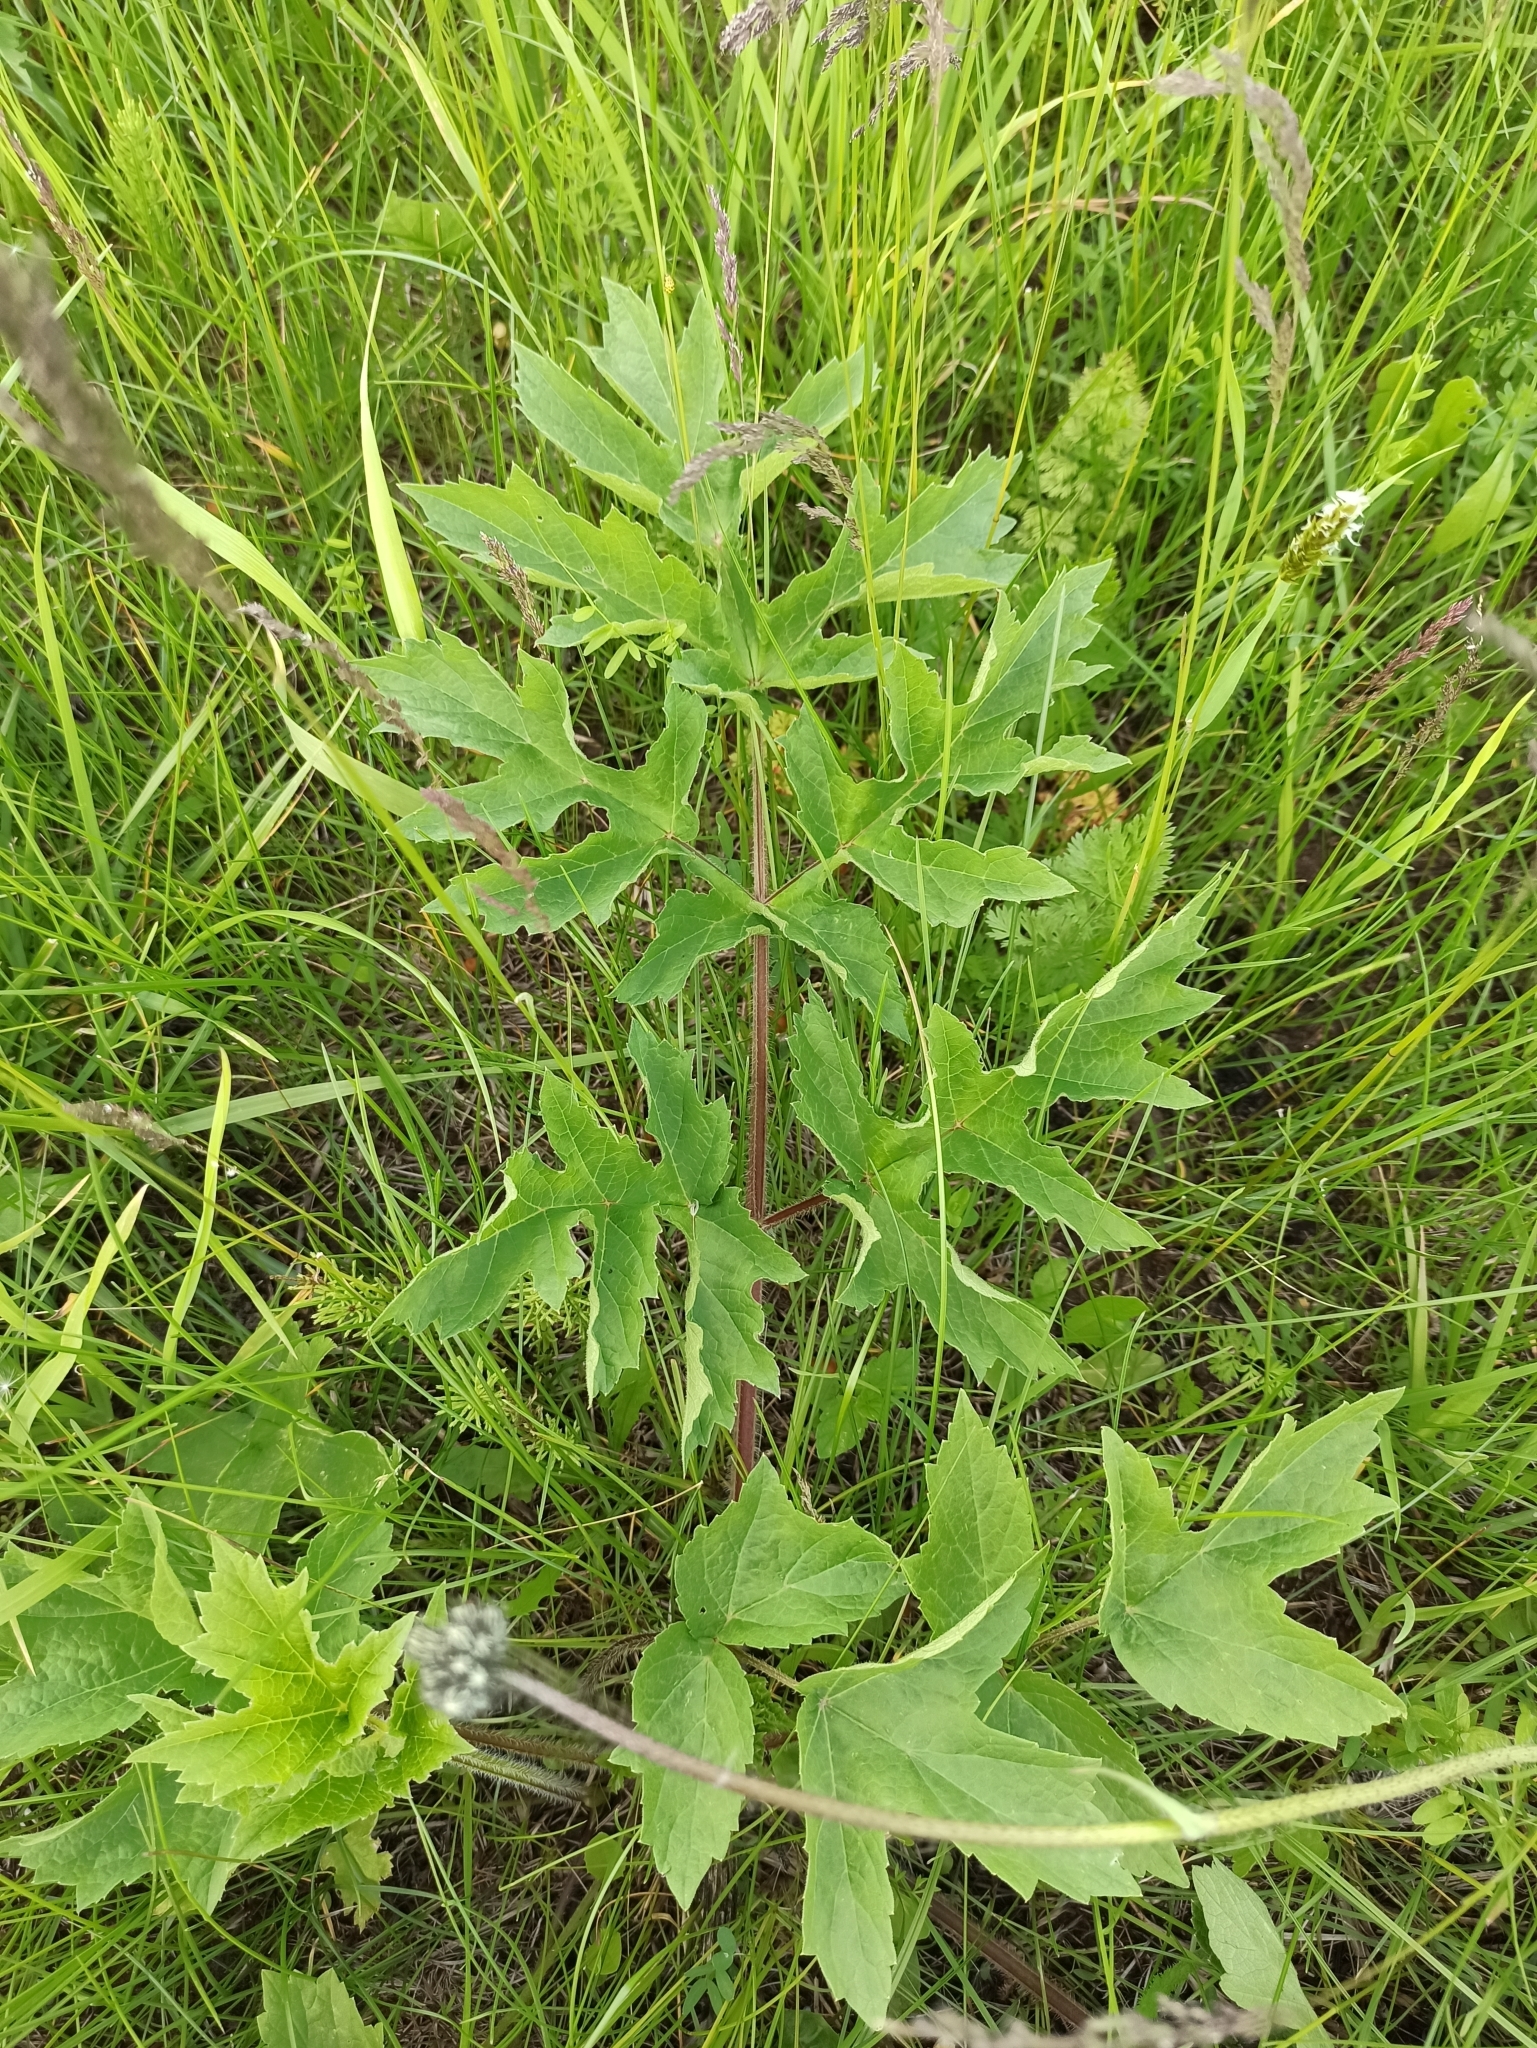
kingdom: Plantae
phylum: Tracheophyta
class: Magnoliopsida
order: Apiales
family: Apiaceae
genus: Heracleum
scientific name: Heracleum sphondylium
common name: Hogweed
